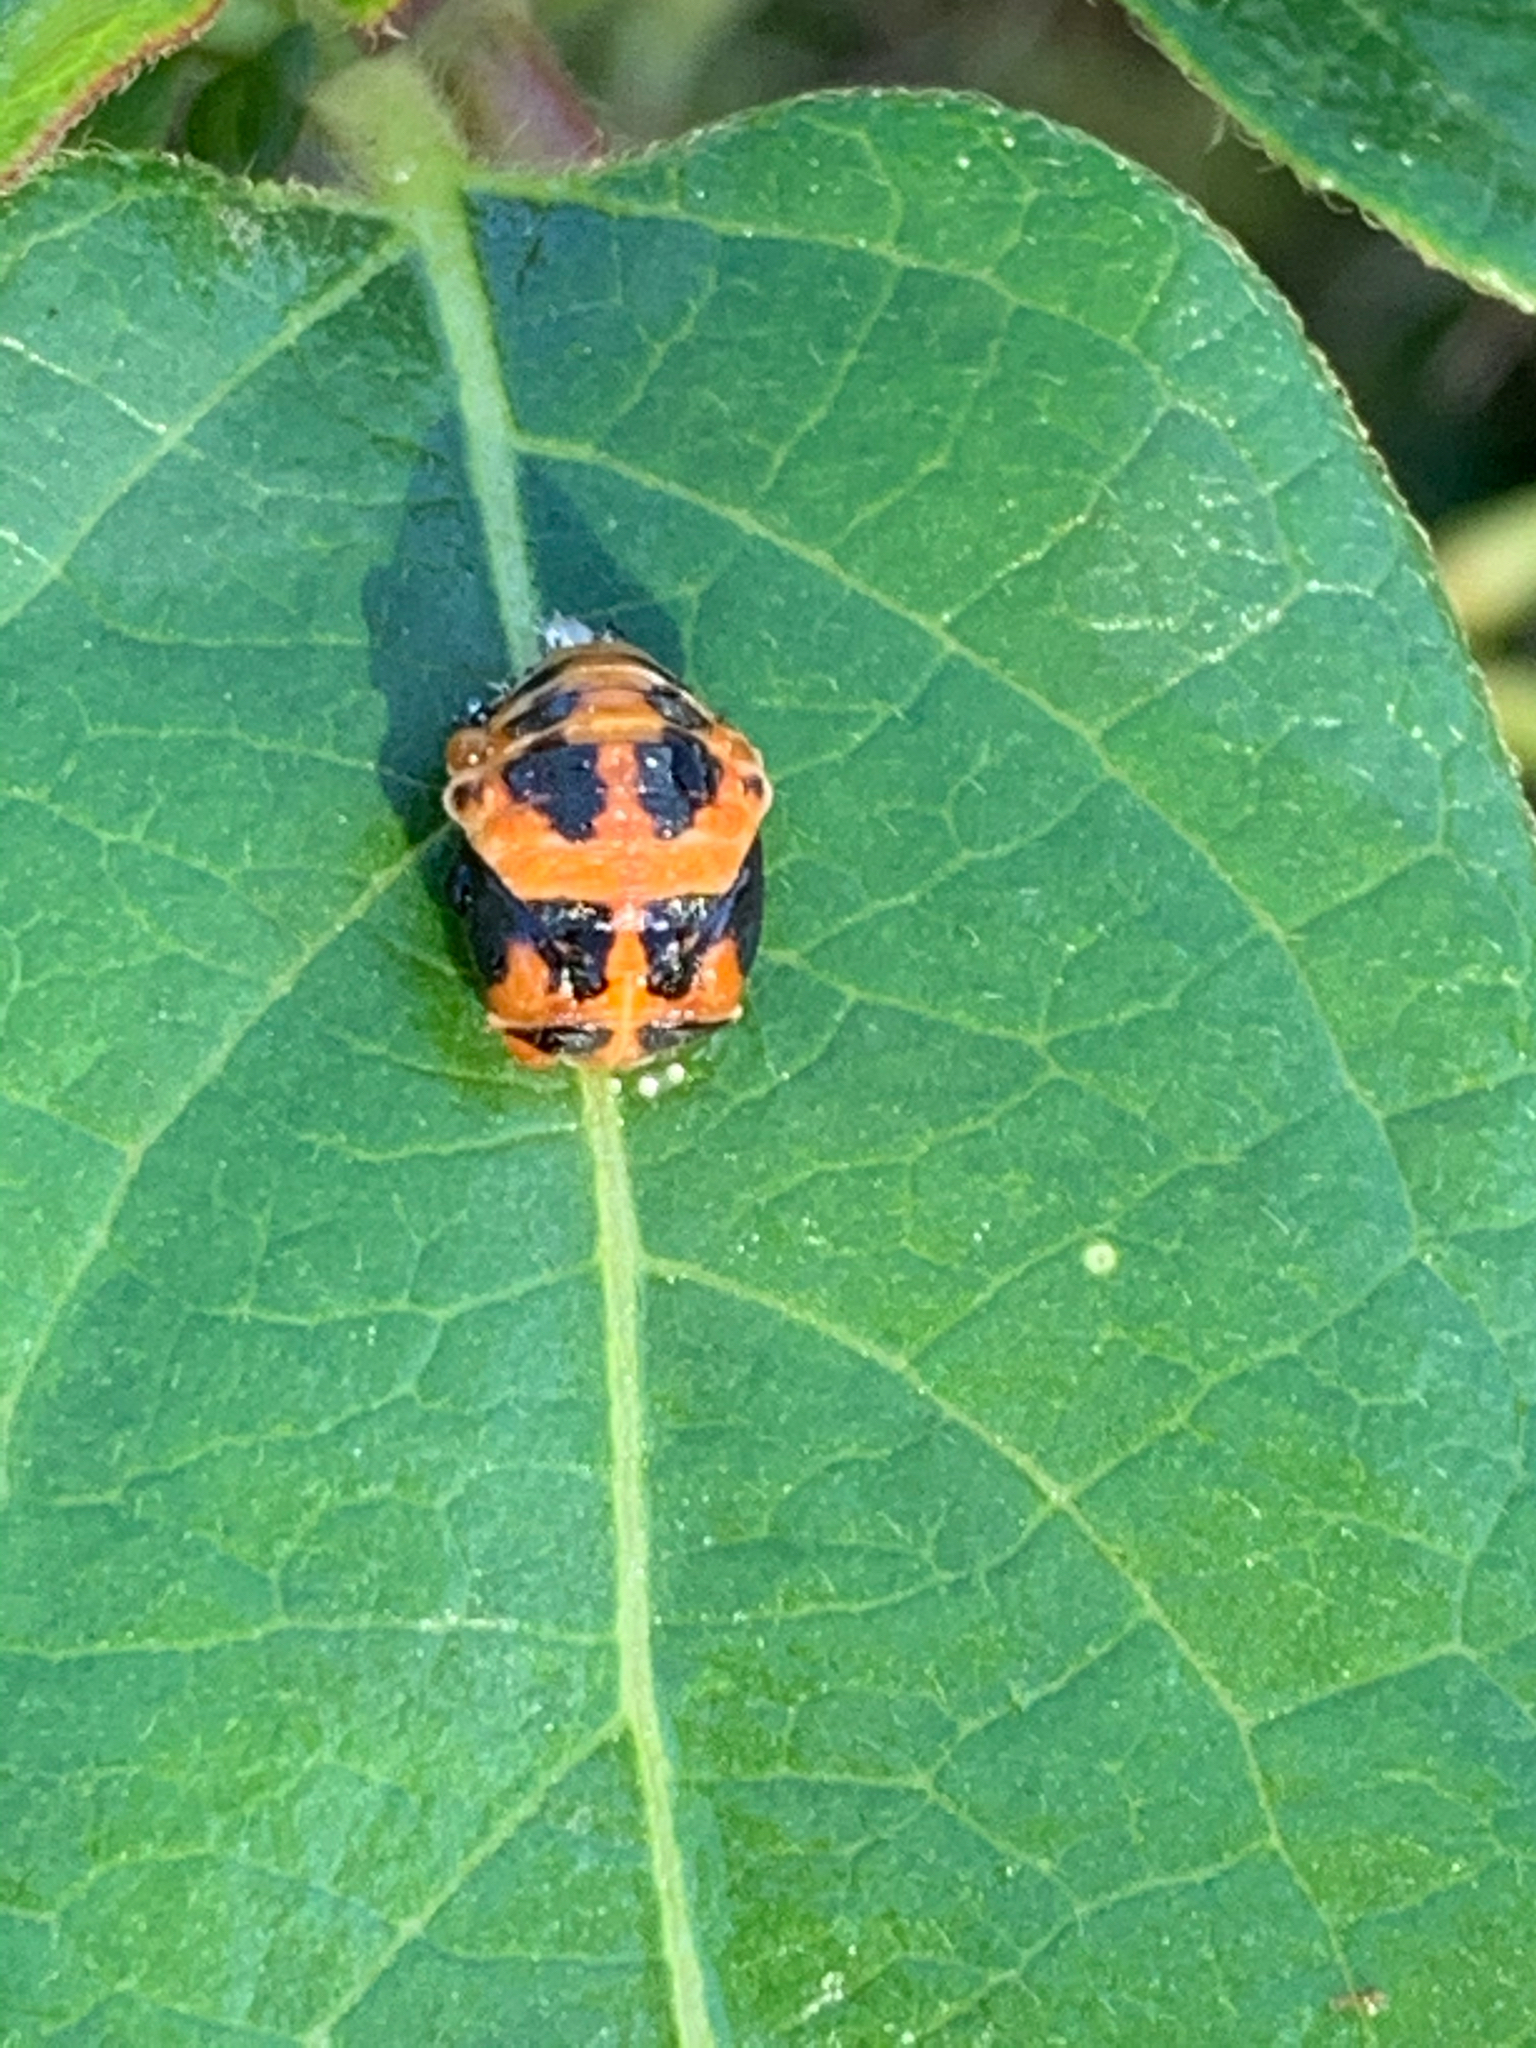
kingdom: Animalia
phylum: Arthropoda
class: Insecta
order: Coleoptera
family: Coccinellidae
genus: Harmonia
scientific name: Harmonia axyridis
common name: Harlequin ladybird
